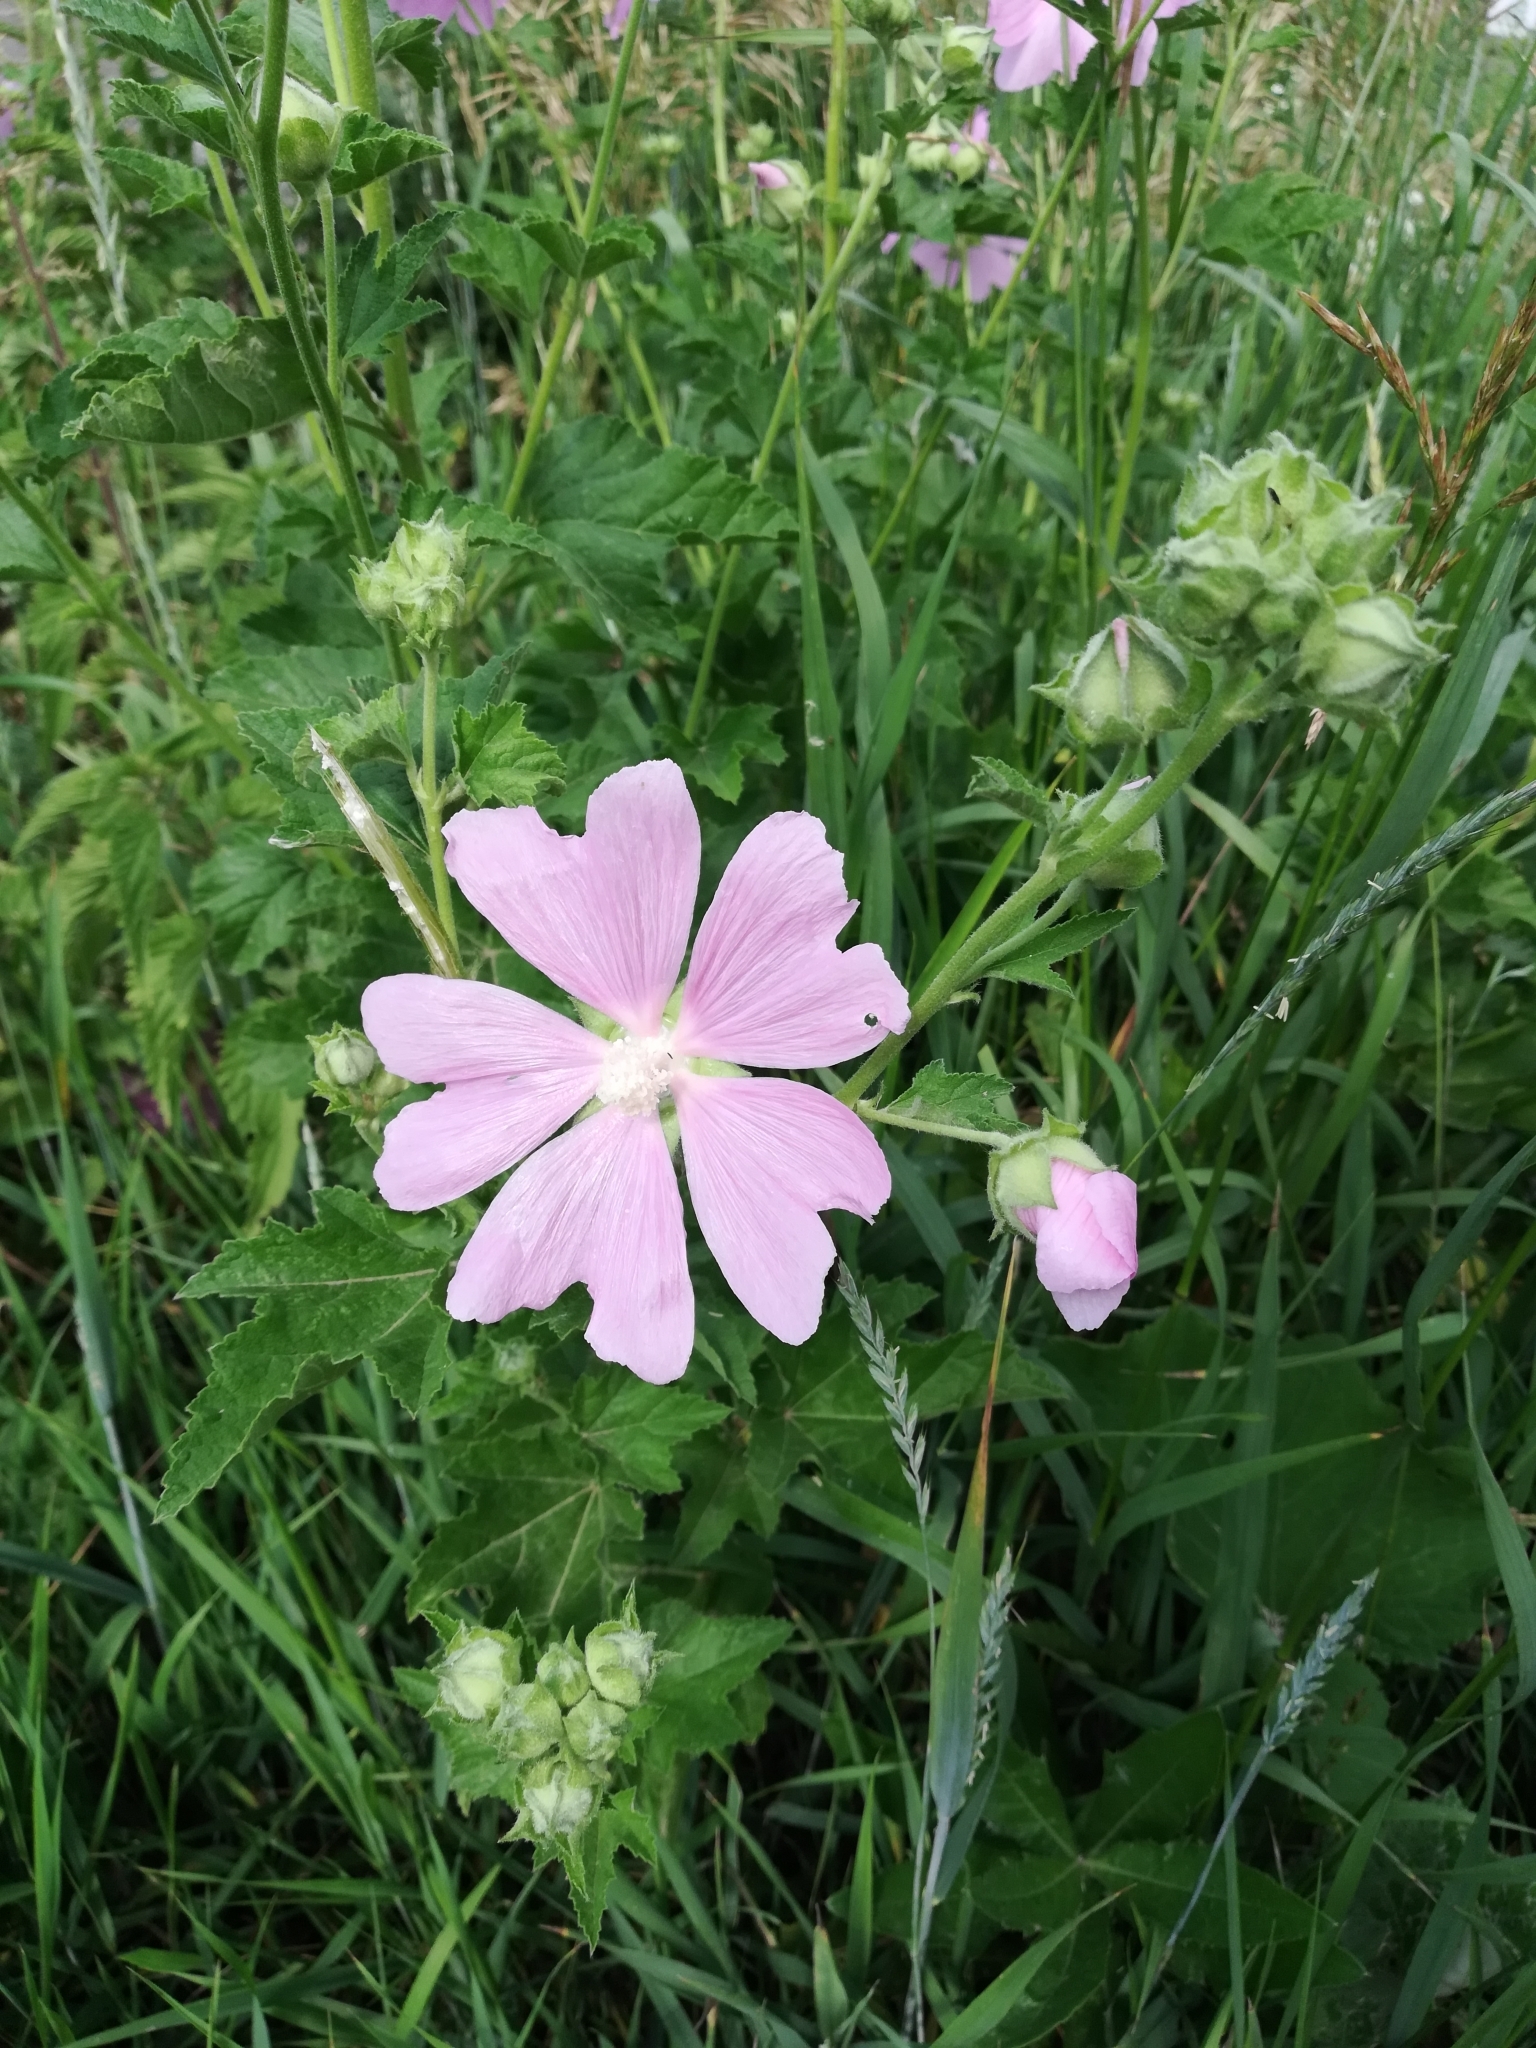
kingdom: Plantae
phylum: Tracheophyta
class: Magnoliopsida
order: Malvales
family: Malvaceae
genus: Malva
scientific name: Malva thuringiaca
